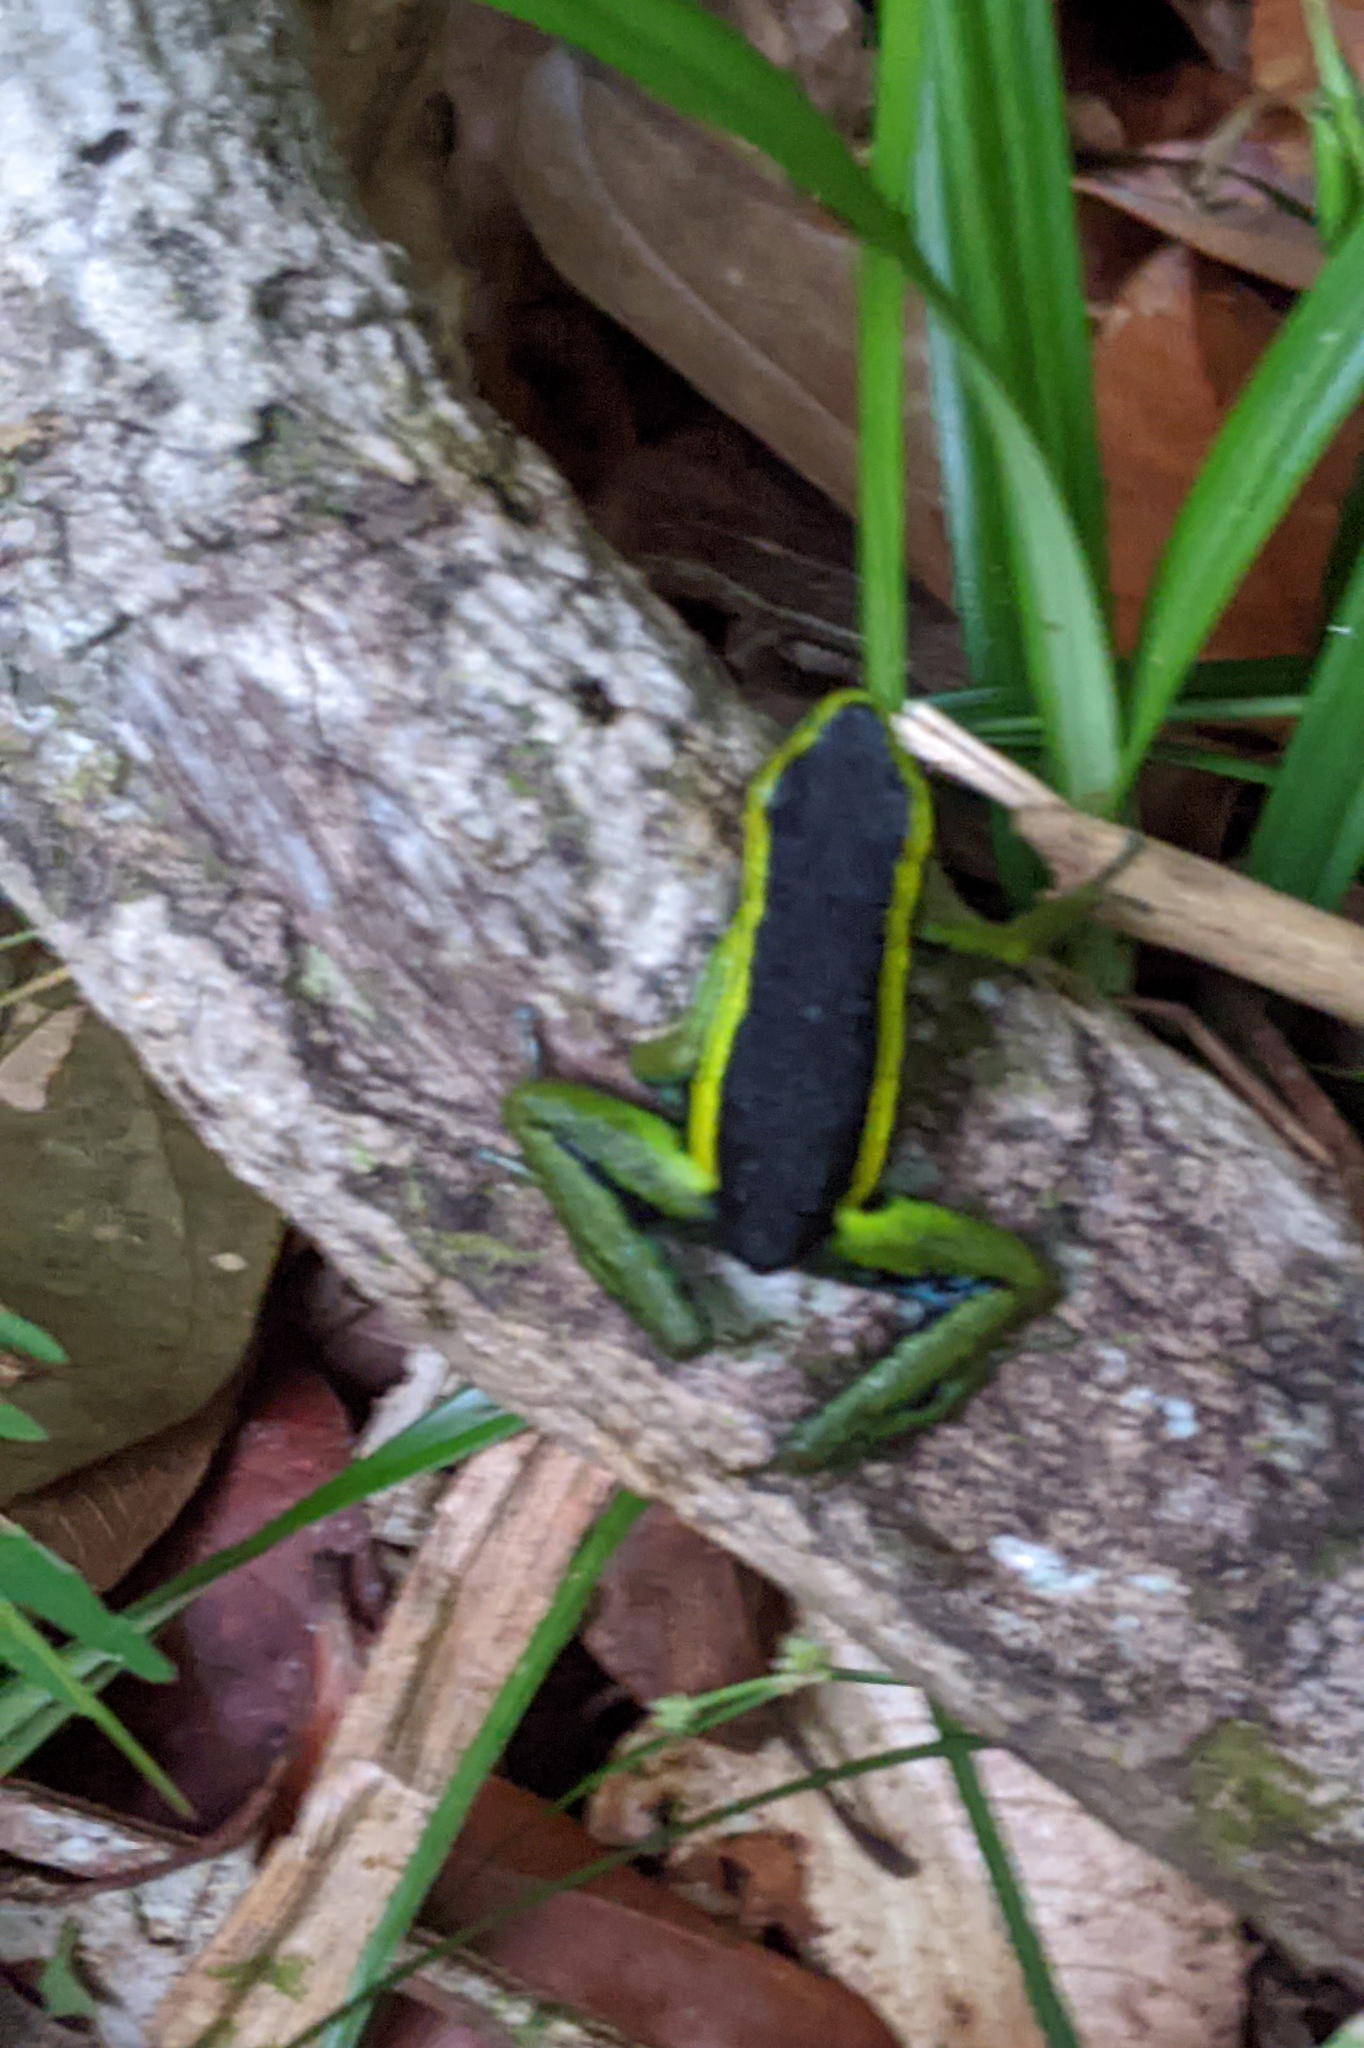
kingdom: Animalia
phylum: Chordata
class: Amphibia
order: Anura
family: Dendrobatidae
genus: Ameerega
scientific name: Ameerega trivittata
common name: Three-striped arrow-poison frog
